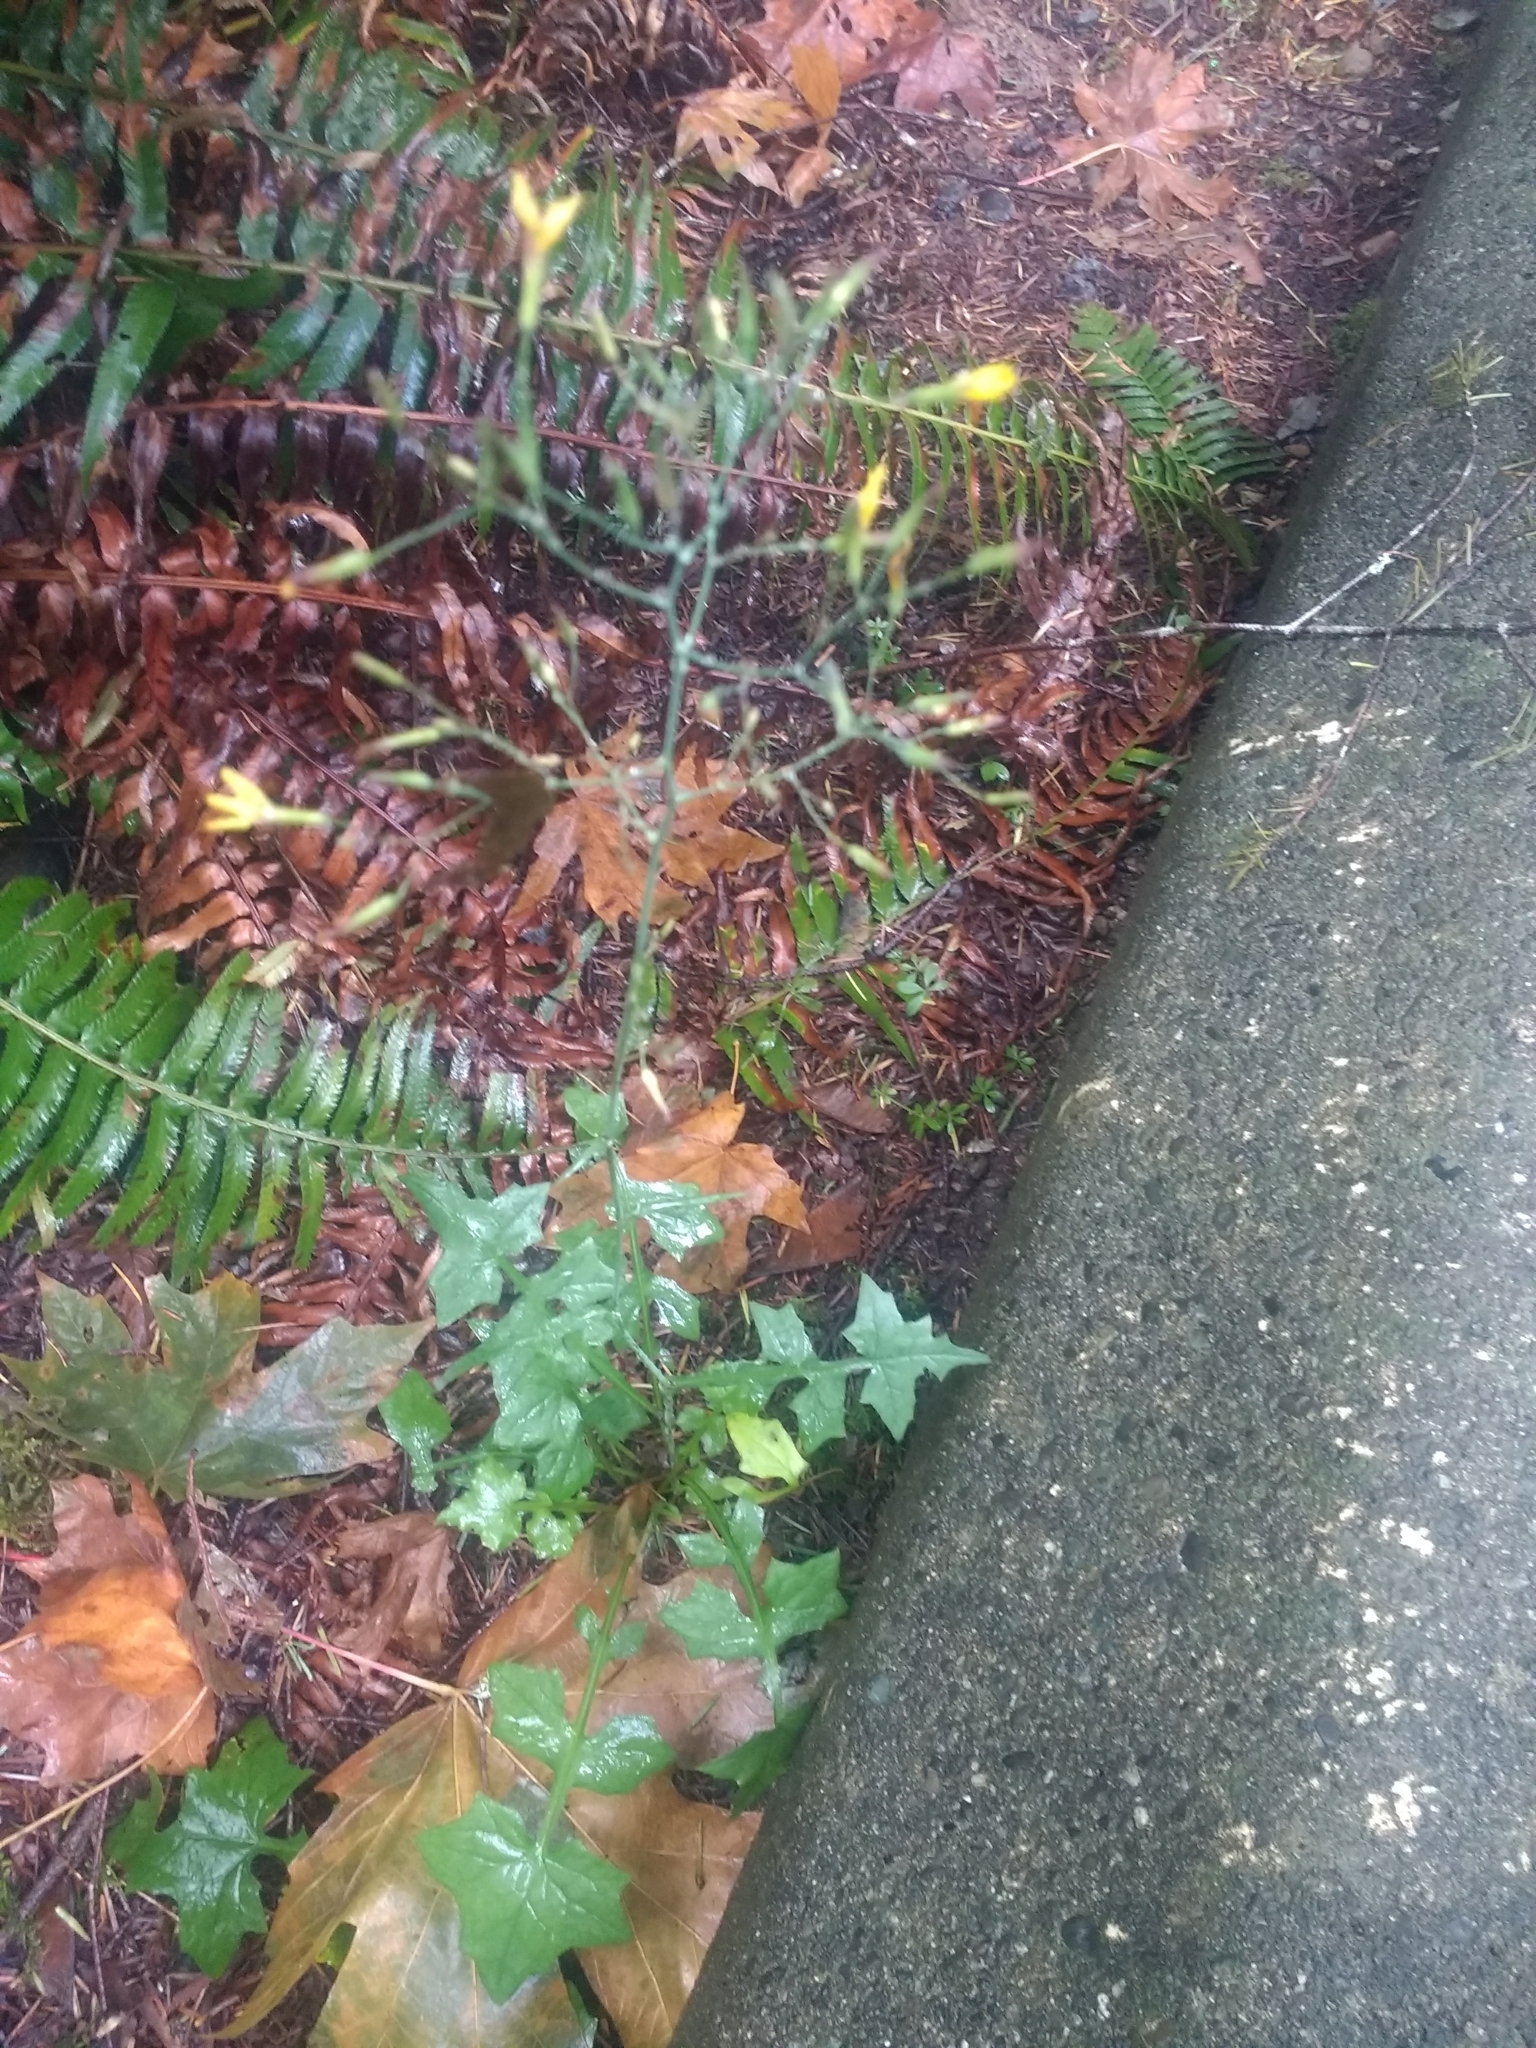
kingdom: Plantae
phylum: Tracheophyta
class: Magnoliopsida
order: Asterales
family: Asteraceae
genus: Mycelis
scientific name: Mycelis muralis
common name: Wall lettuce
